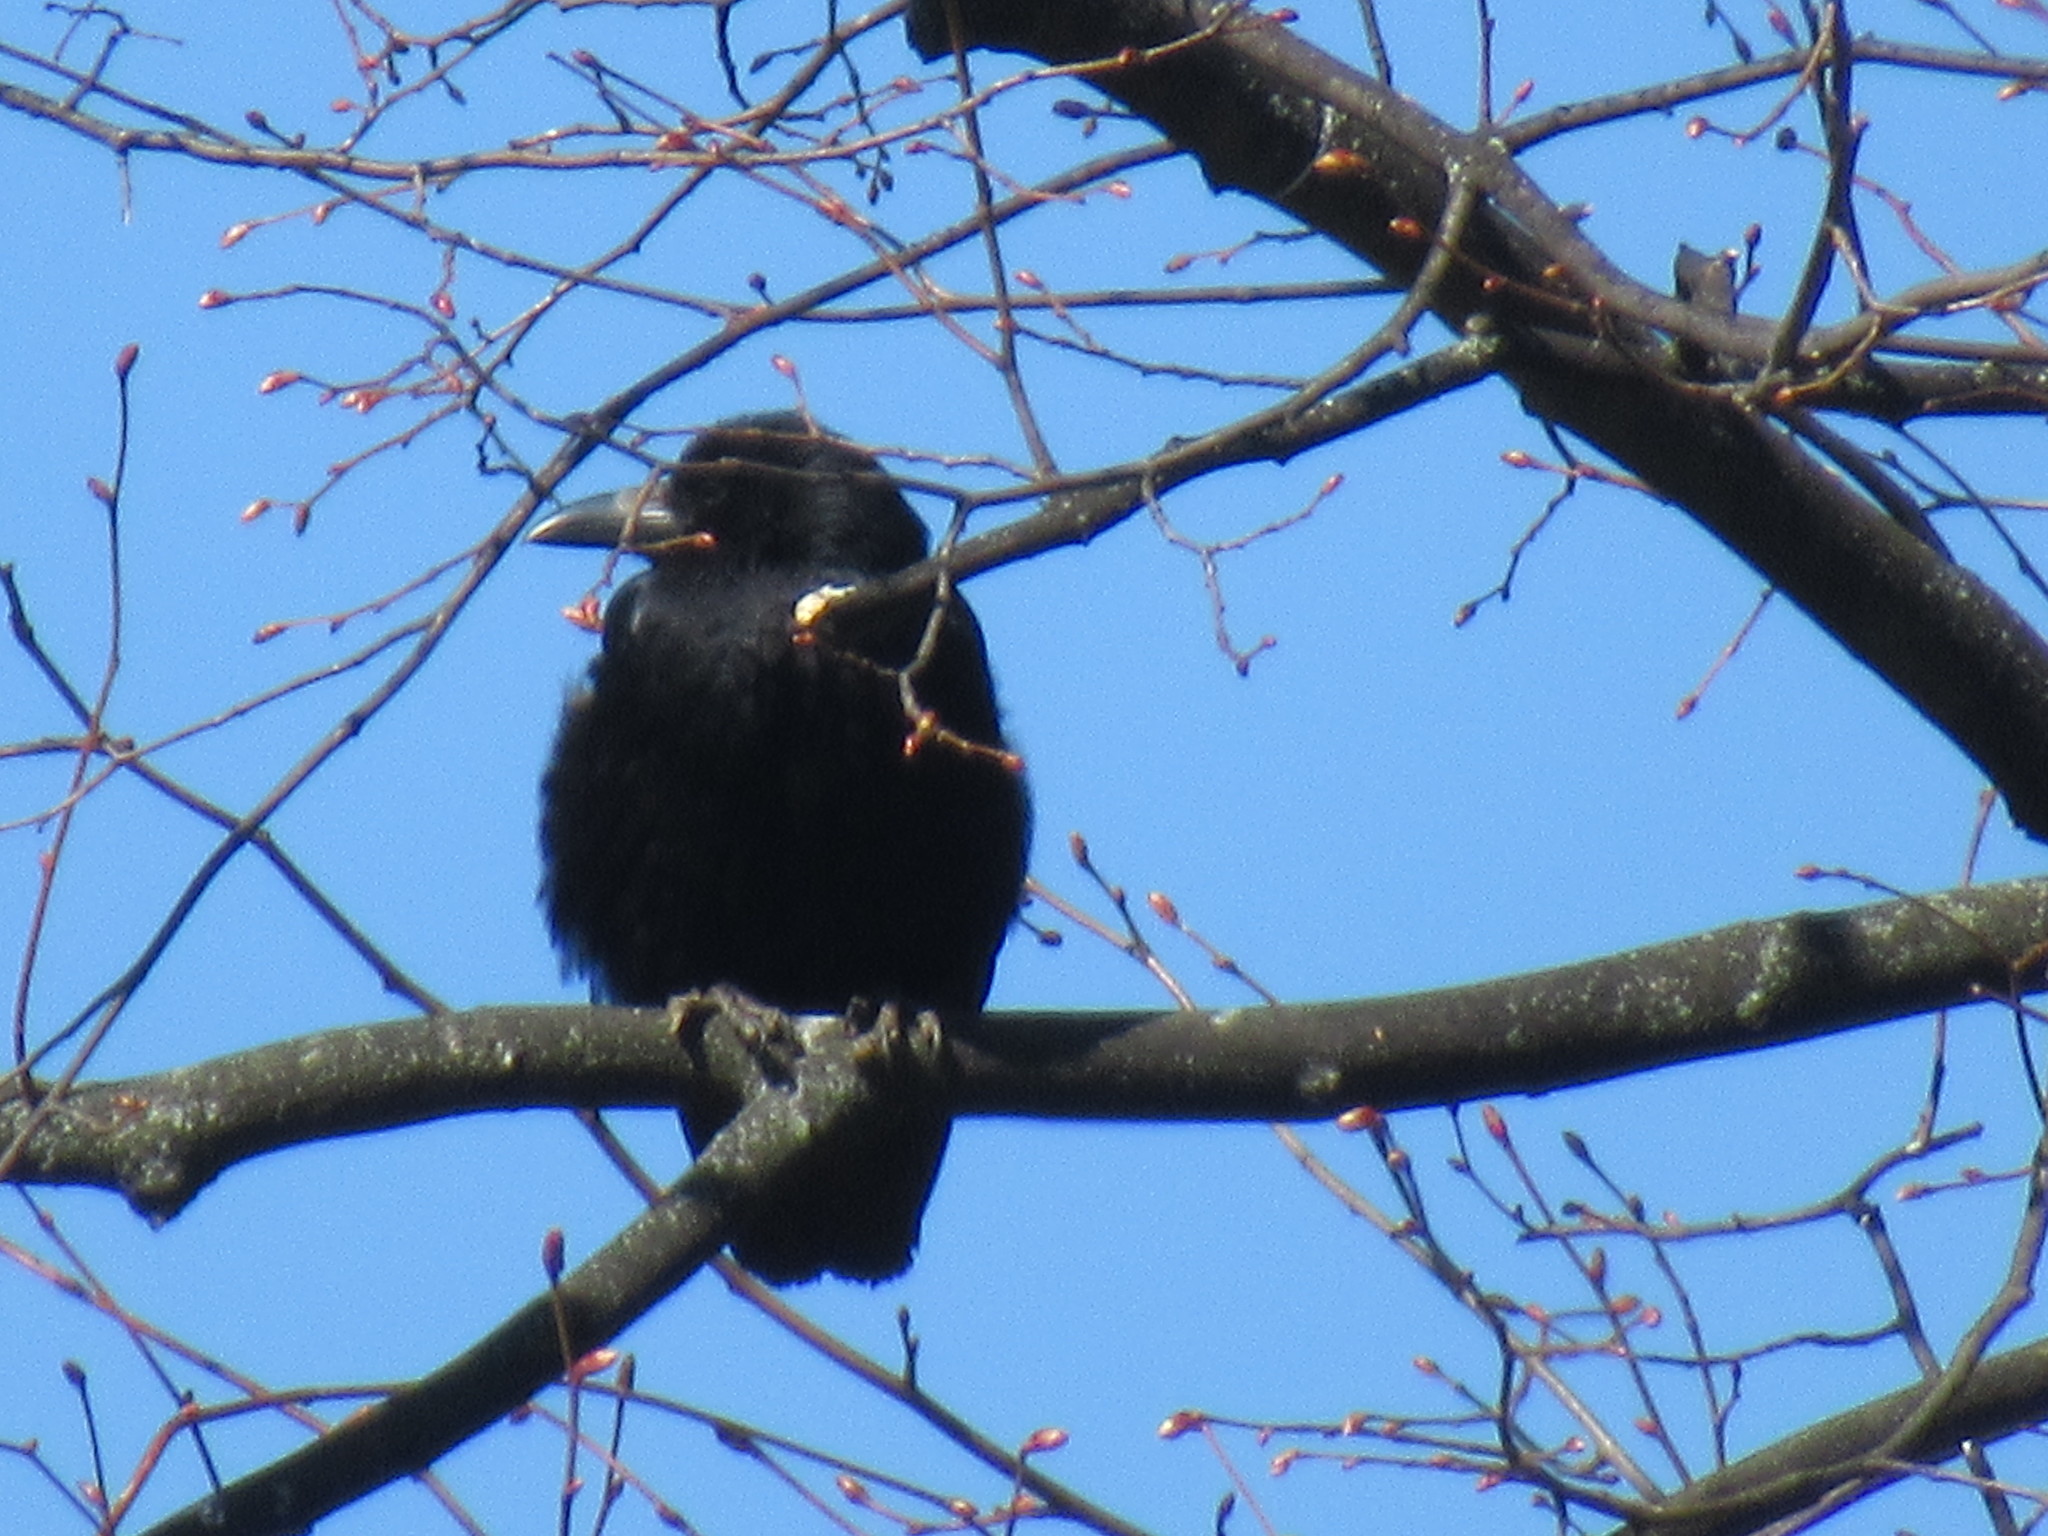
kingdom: Animalia
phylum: Chordata
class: Aves
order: Passeriformes
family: Corvidae
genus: Corvus
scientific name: Corvus corone
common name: Carrion crow
